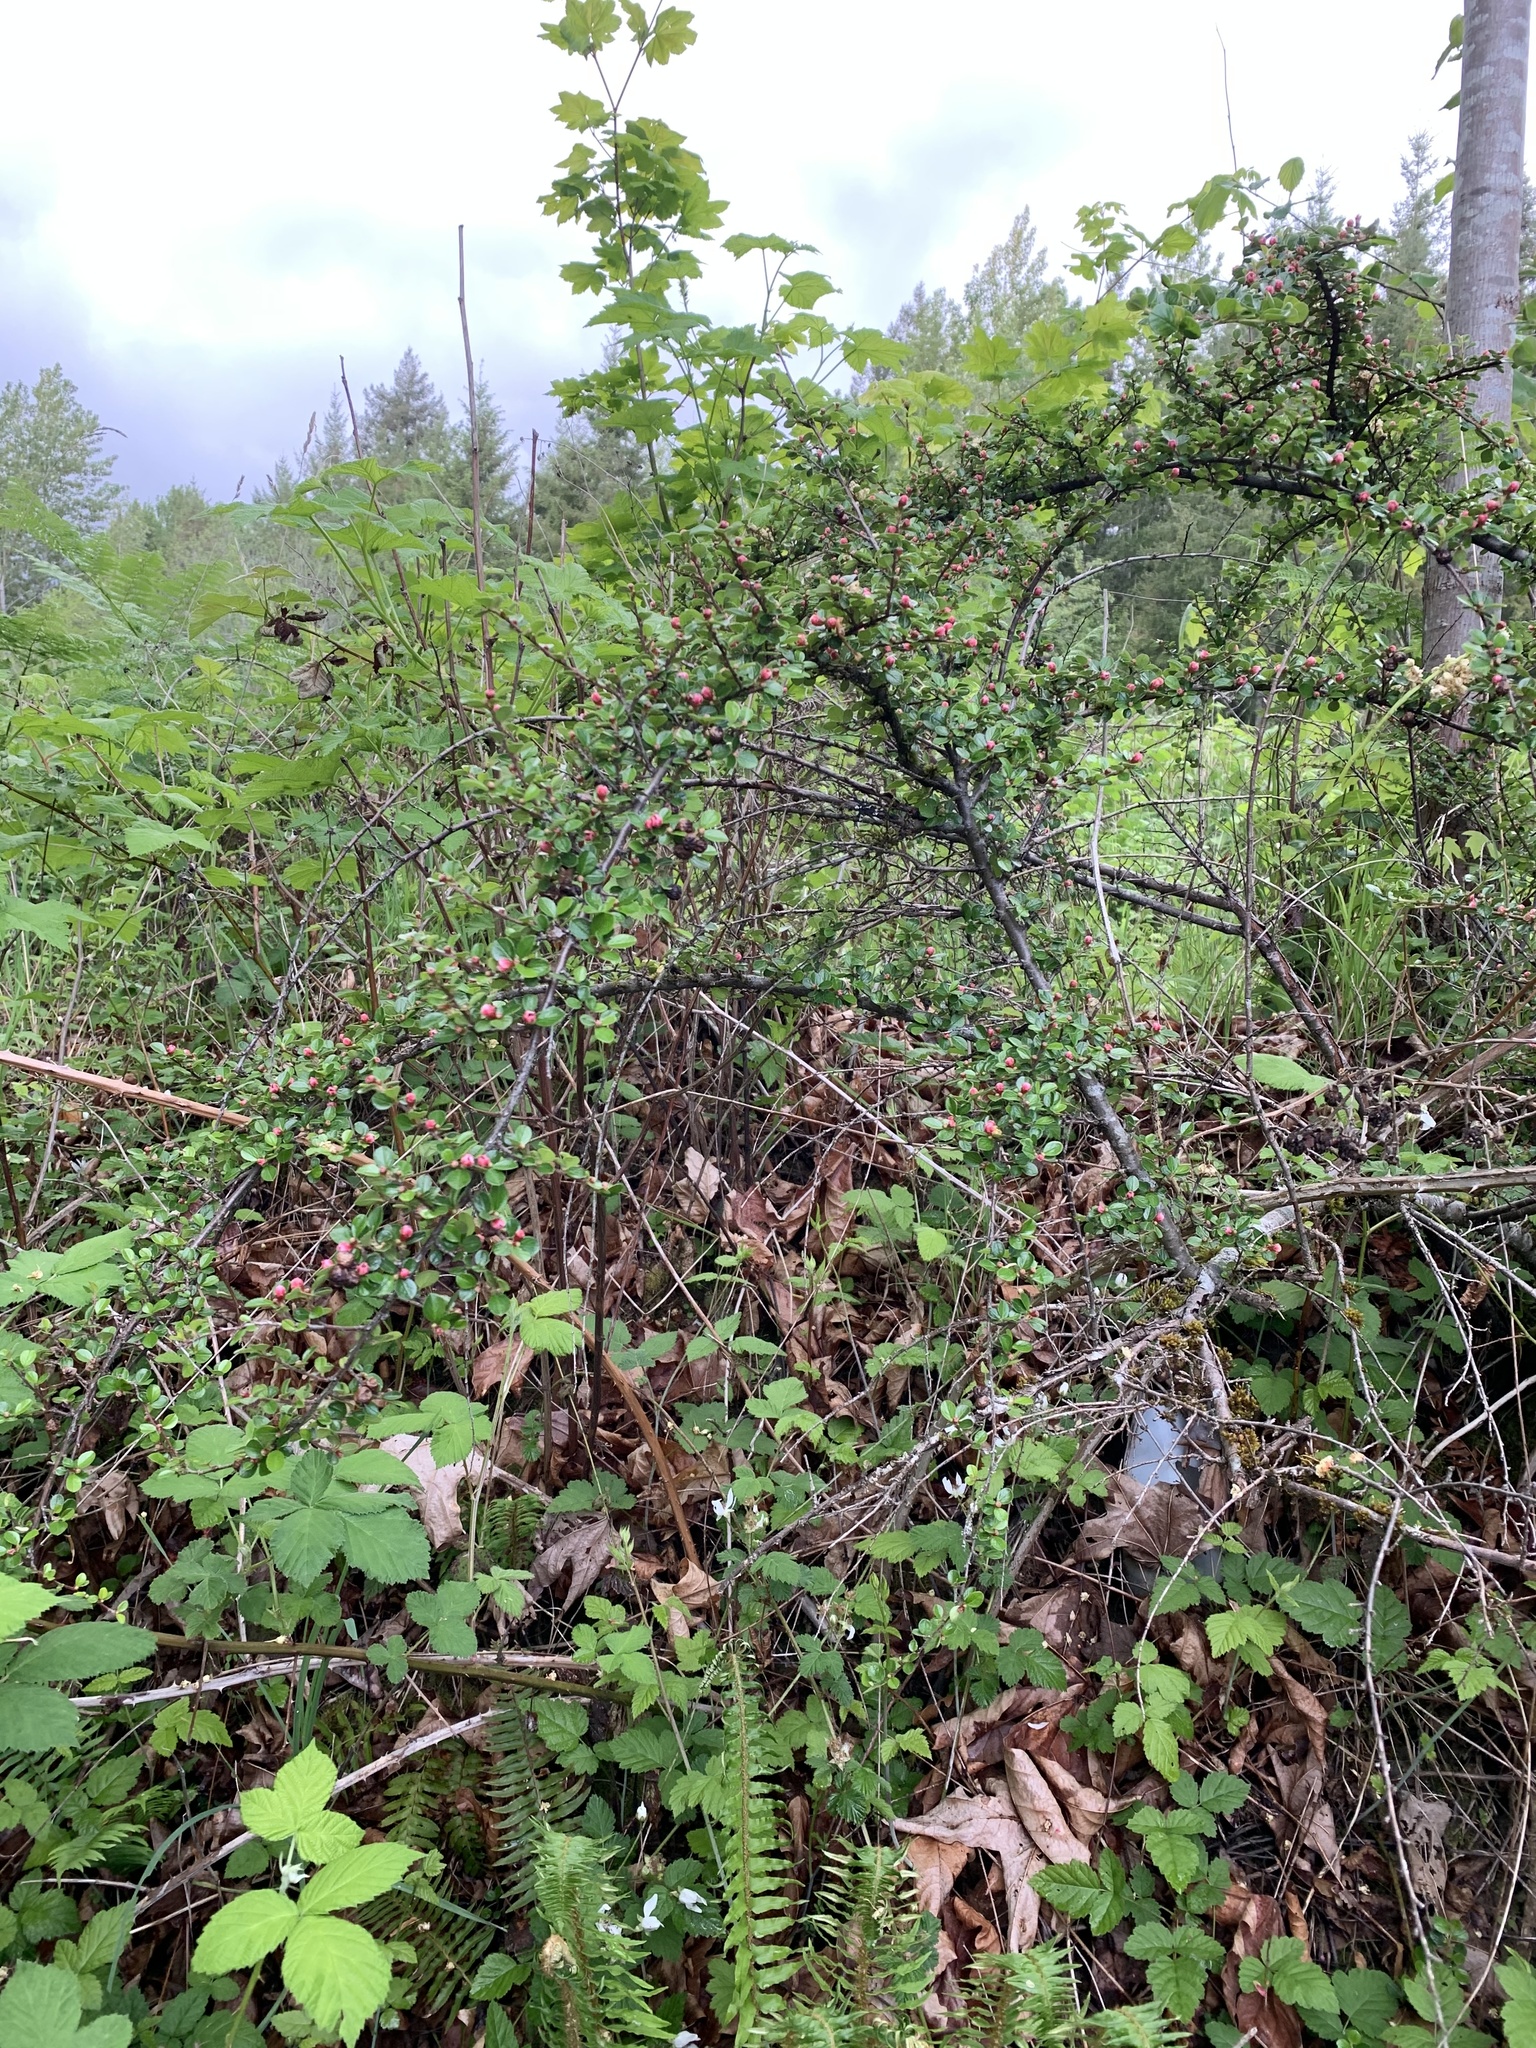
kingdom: Plantae
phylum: Tracheophyta
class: Magnoliopsida
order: Rosales
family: Rosaceae
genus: Cotoneaster
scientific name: Cotoneaster horizontalis
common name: Wall cotoneaster
